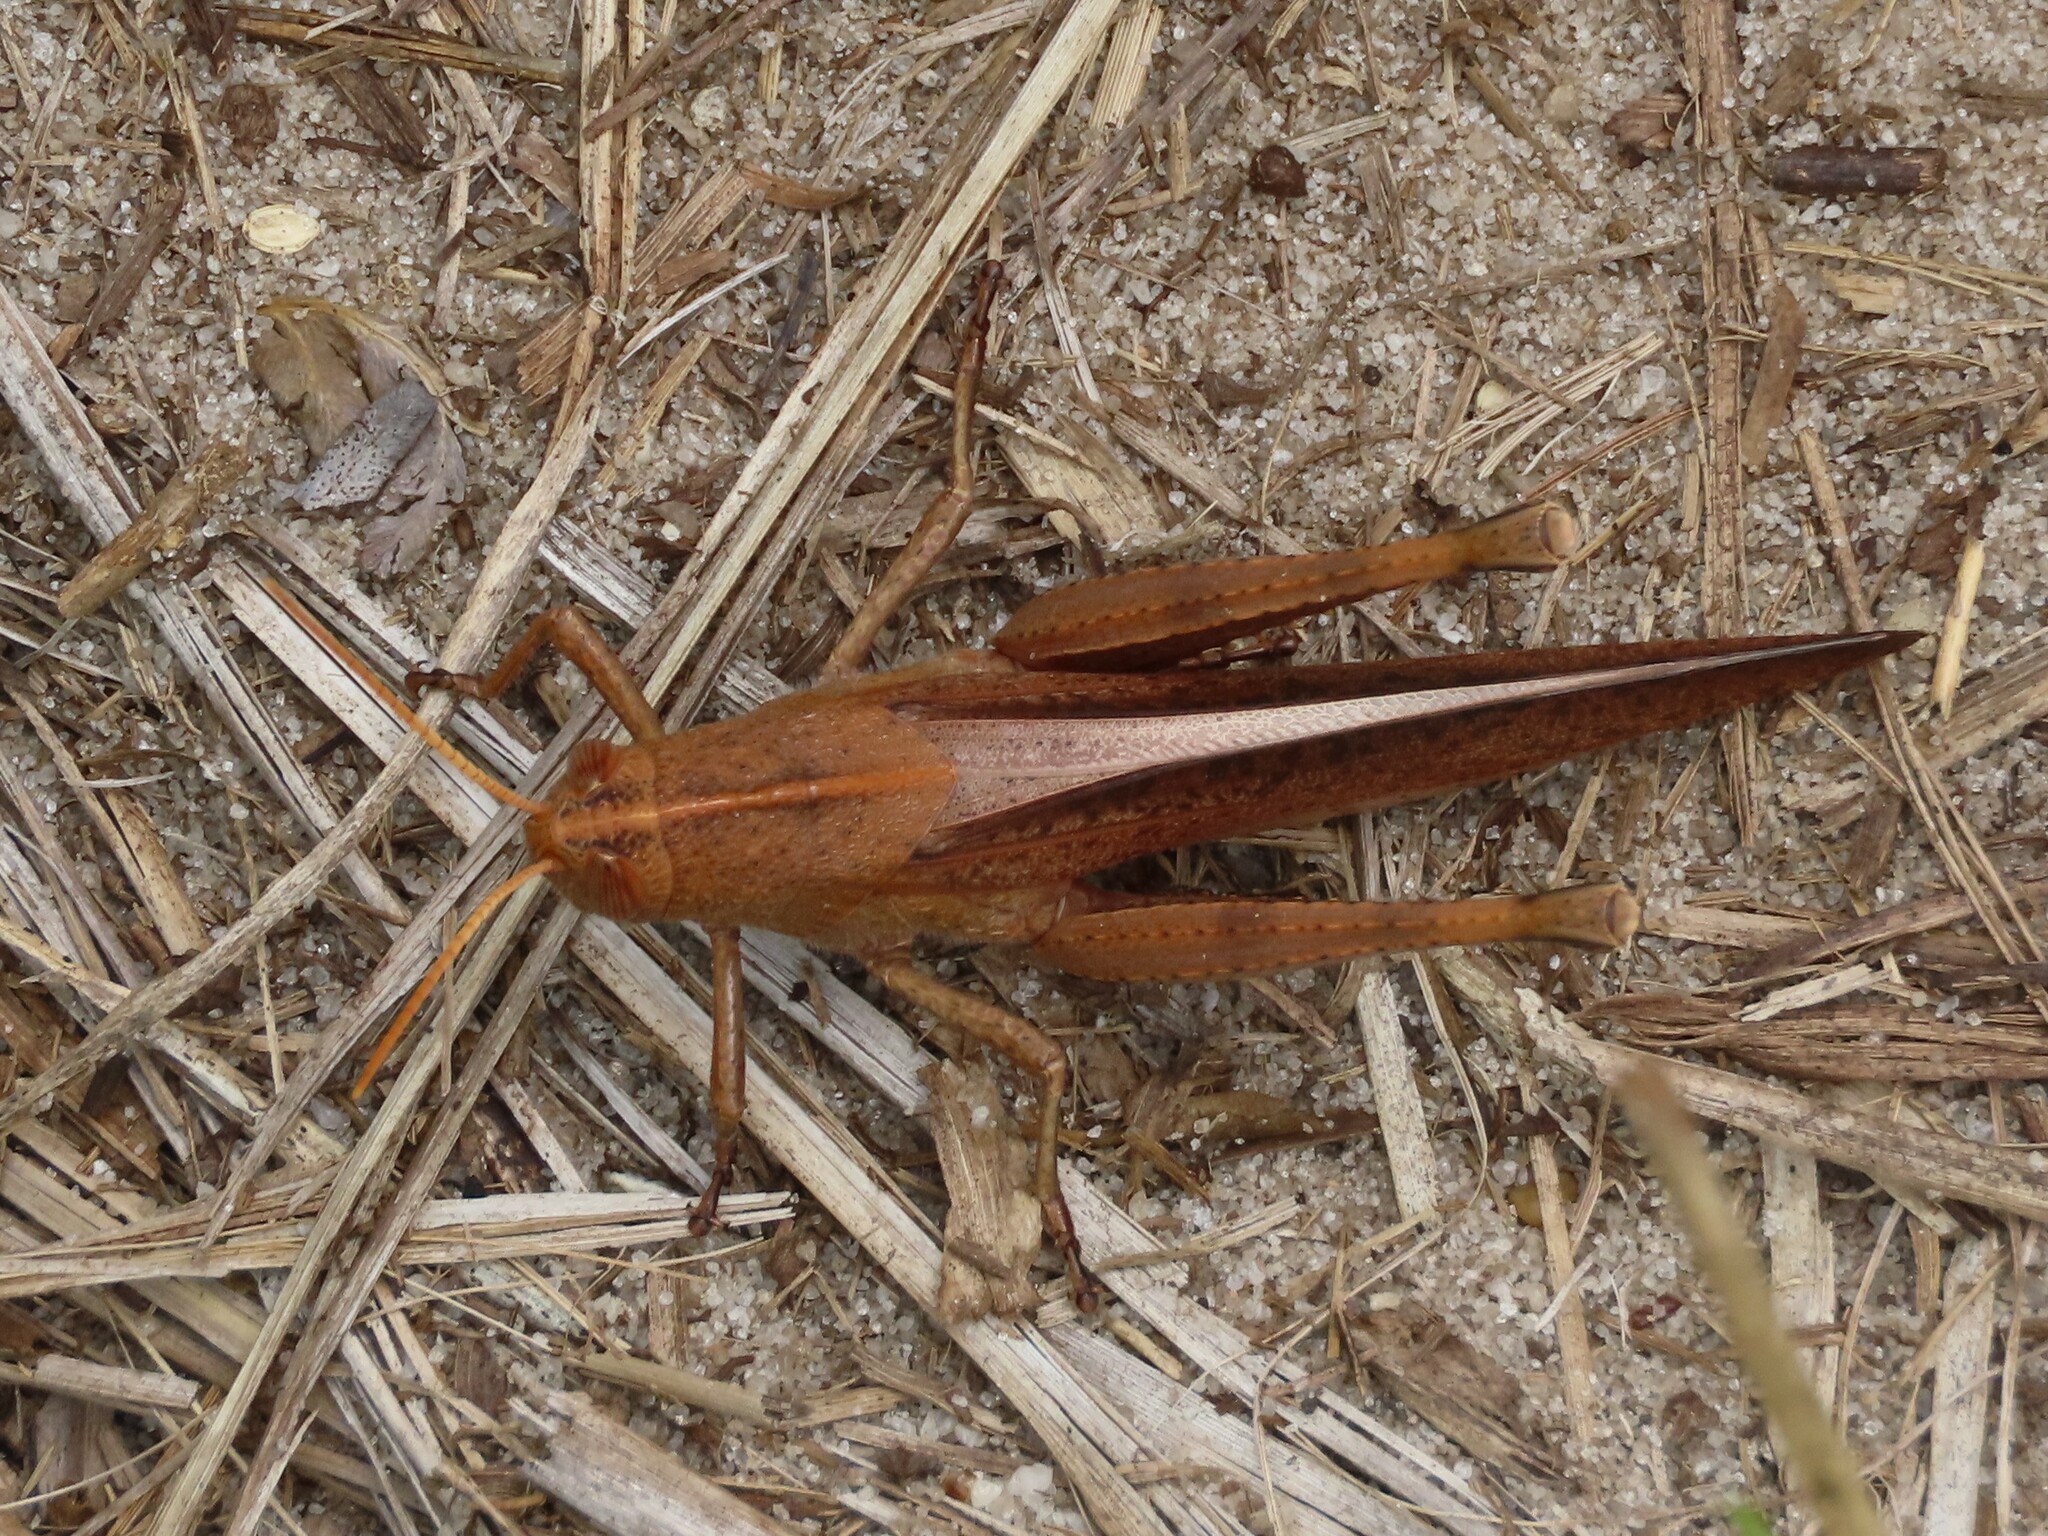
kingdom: Animalia
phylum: Arthropoda
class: Insecta
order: Orthoptera
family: Acrididae
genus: Schistocerca
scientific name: Schistocerca damnifica
